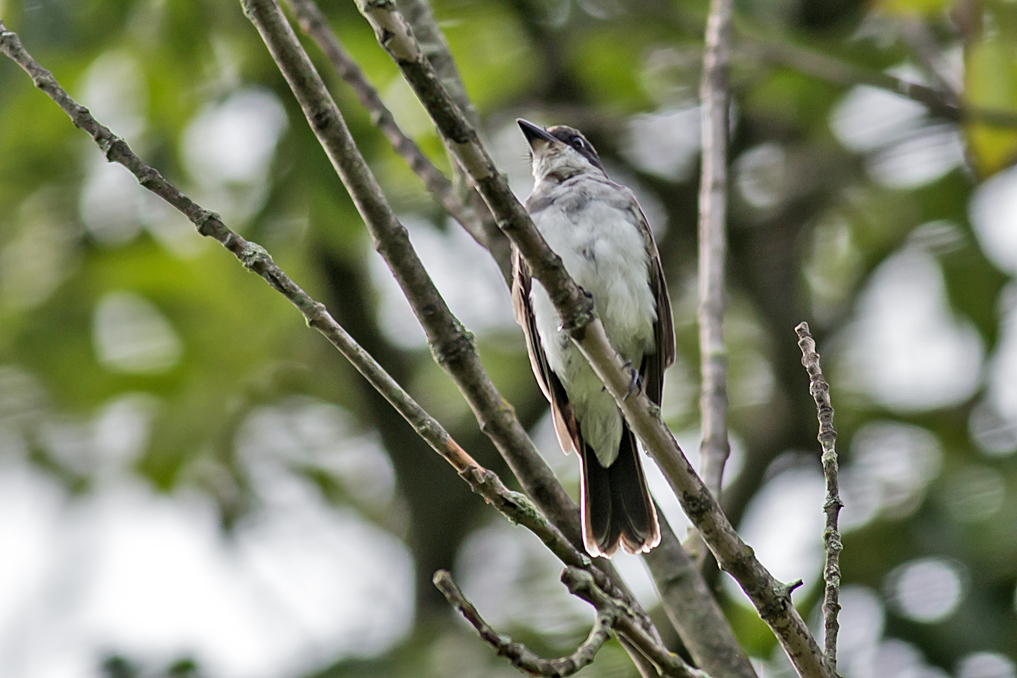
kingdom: Animalia
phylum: Chordata
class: Aves
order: Passeriformes
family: Tyrannidae
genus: Tyrannus
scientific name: Tyrannus tyrannus
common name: Eastern kingbird
